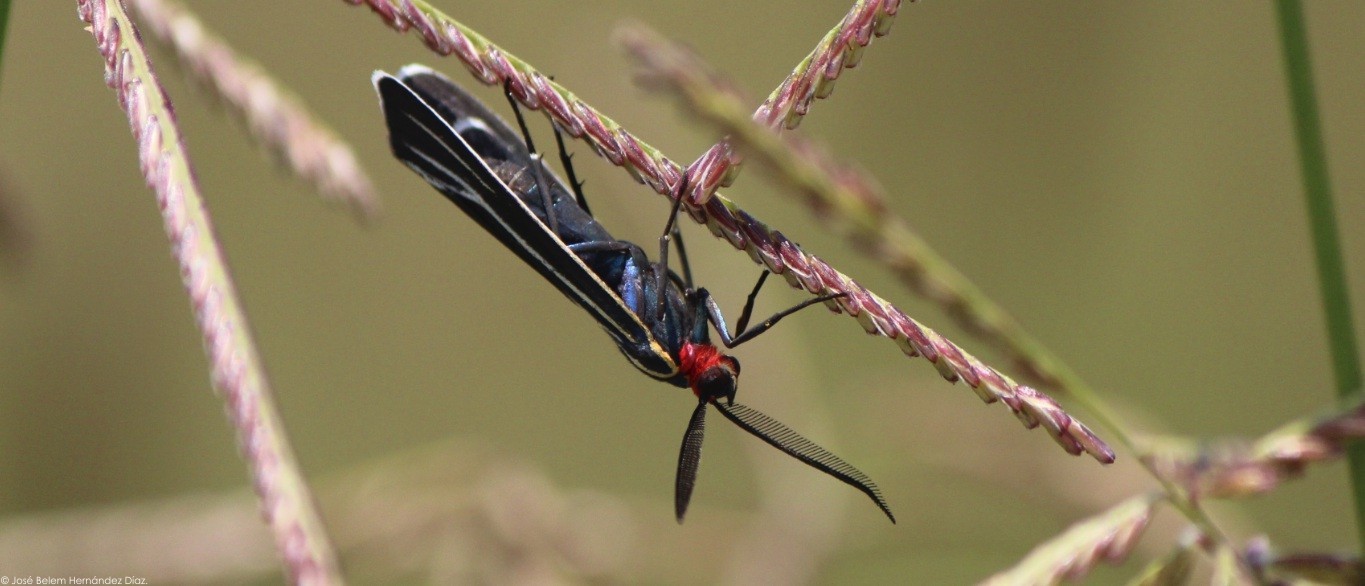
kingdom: Animalia
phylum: Arthropoda
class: Insecta
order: Lepidoptera
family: Erebidae
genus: Ctenucha
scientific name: Ctenucha venosa
